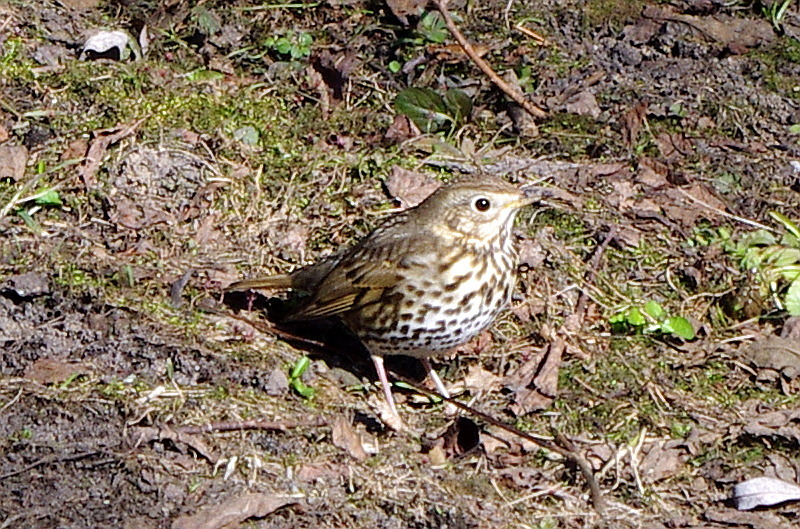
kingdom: Animalia
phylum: Chordata
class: Aves
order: Passeriformes
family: Turdidae
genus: Turdus
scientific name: Turdus philomelos
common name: Song thrush
